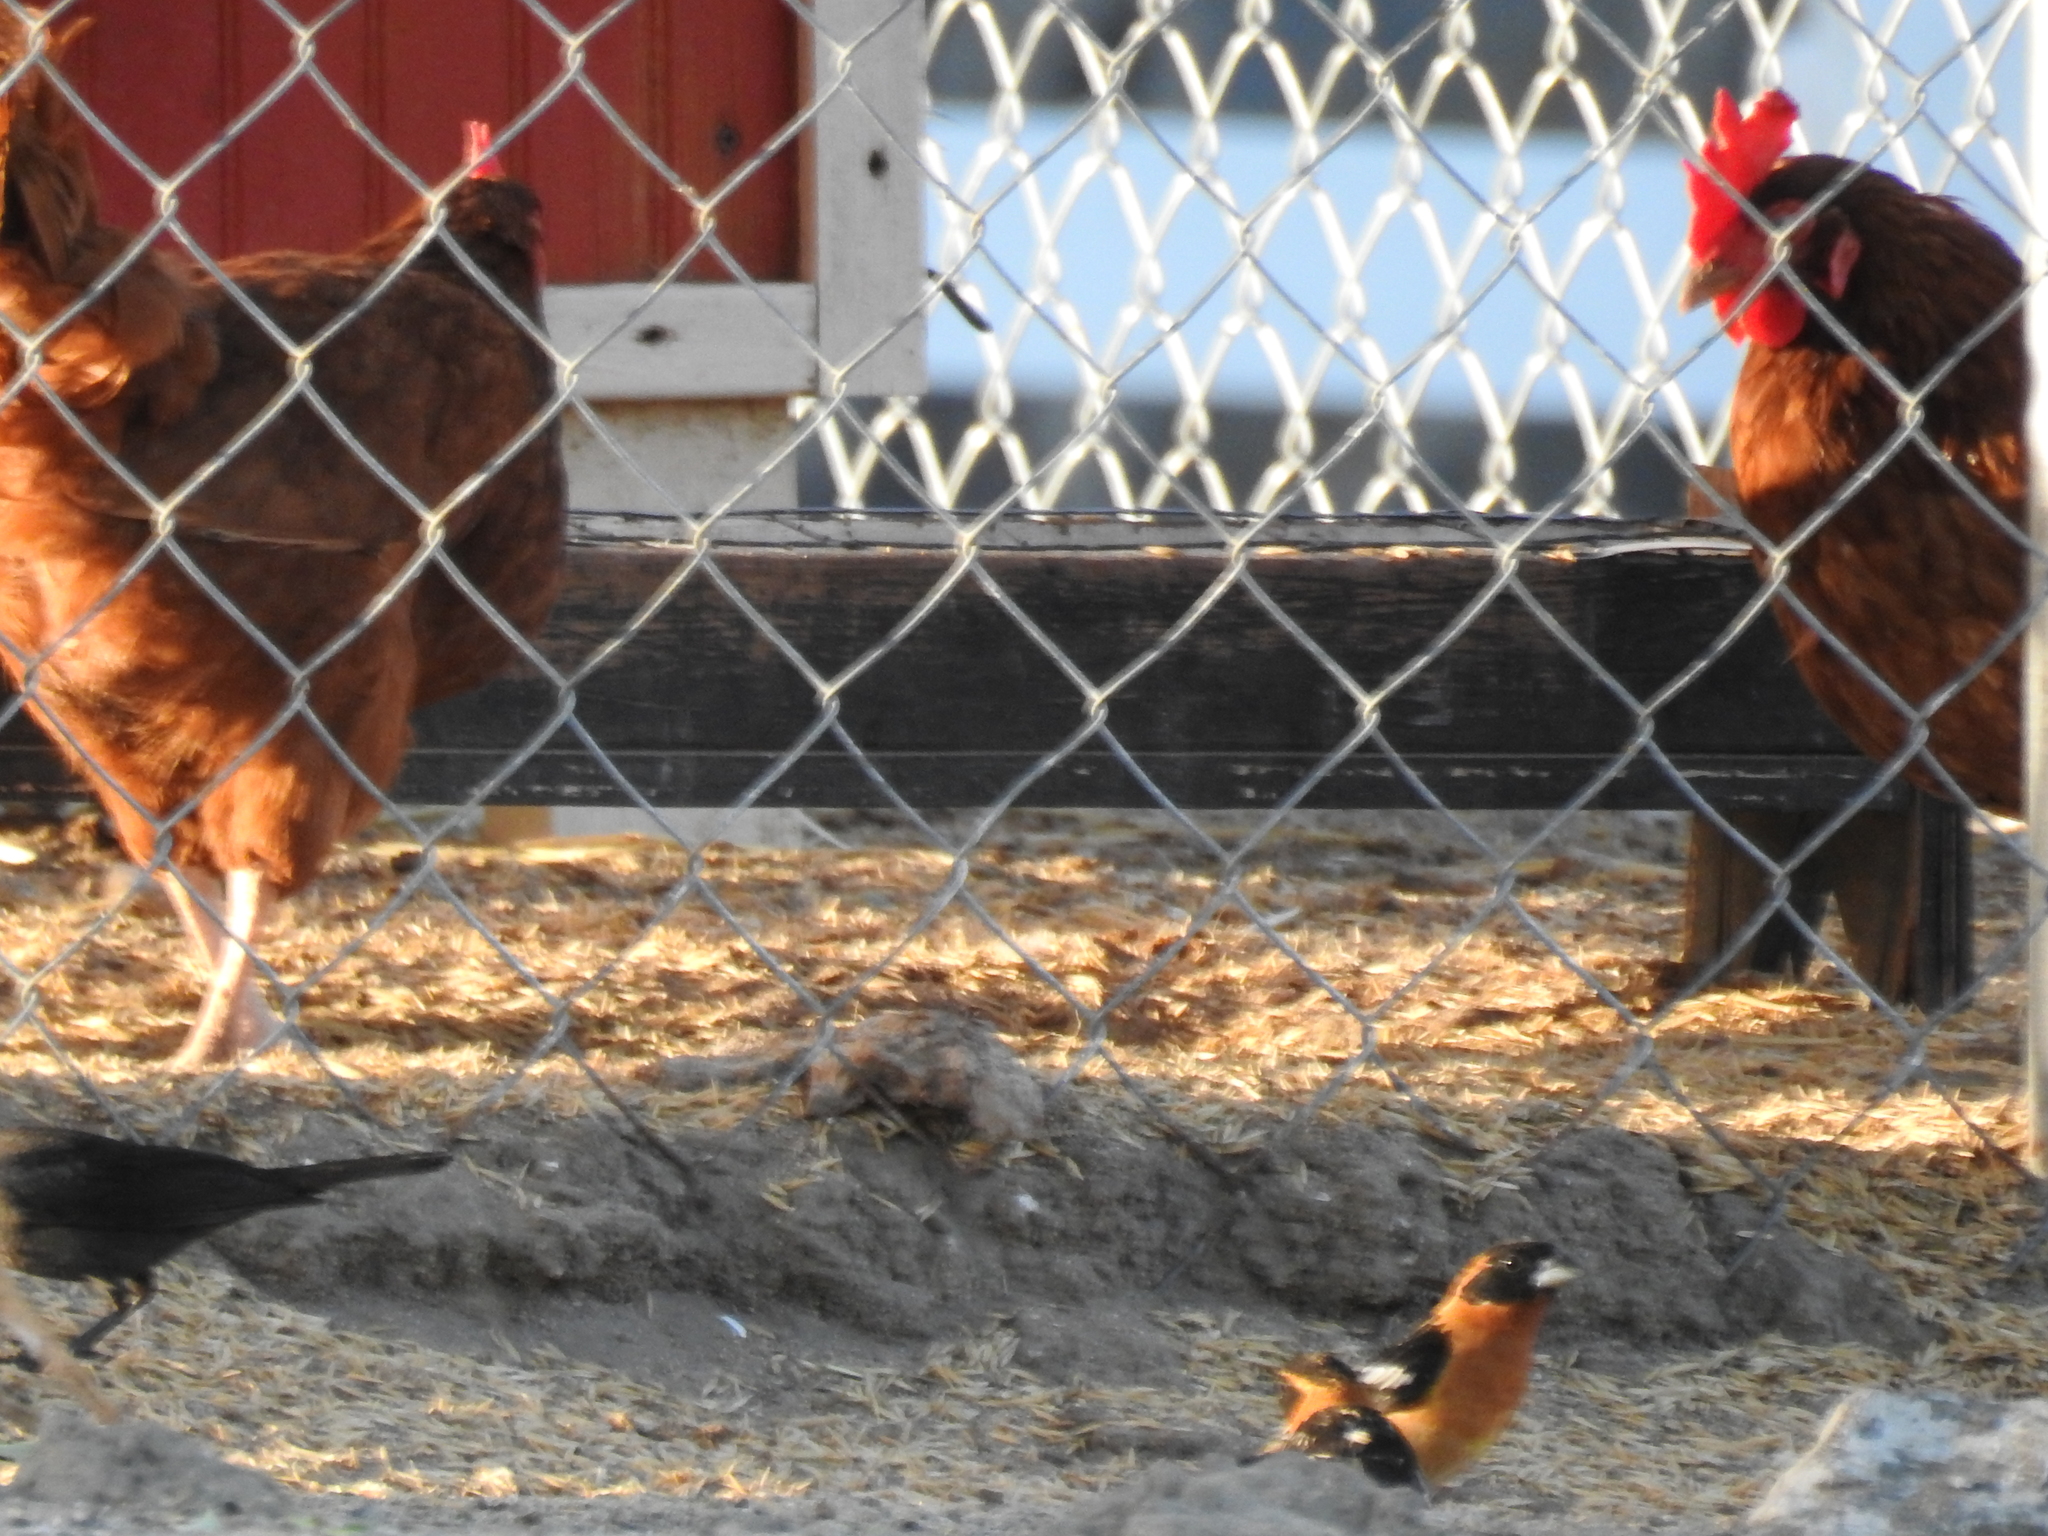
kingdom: Animalia
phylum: Chordata
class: Aves
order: Passeriformes
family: Cardinalidae
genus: Pheucticus
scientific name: Pheucticus melanocephalus
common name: Black-headed grosbeak
